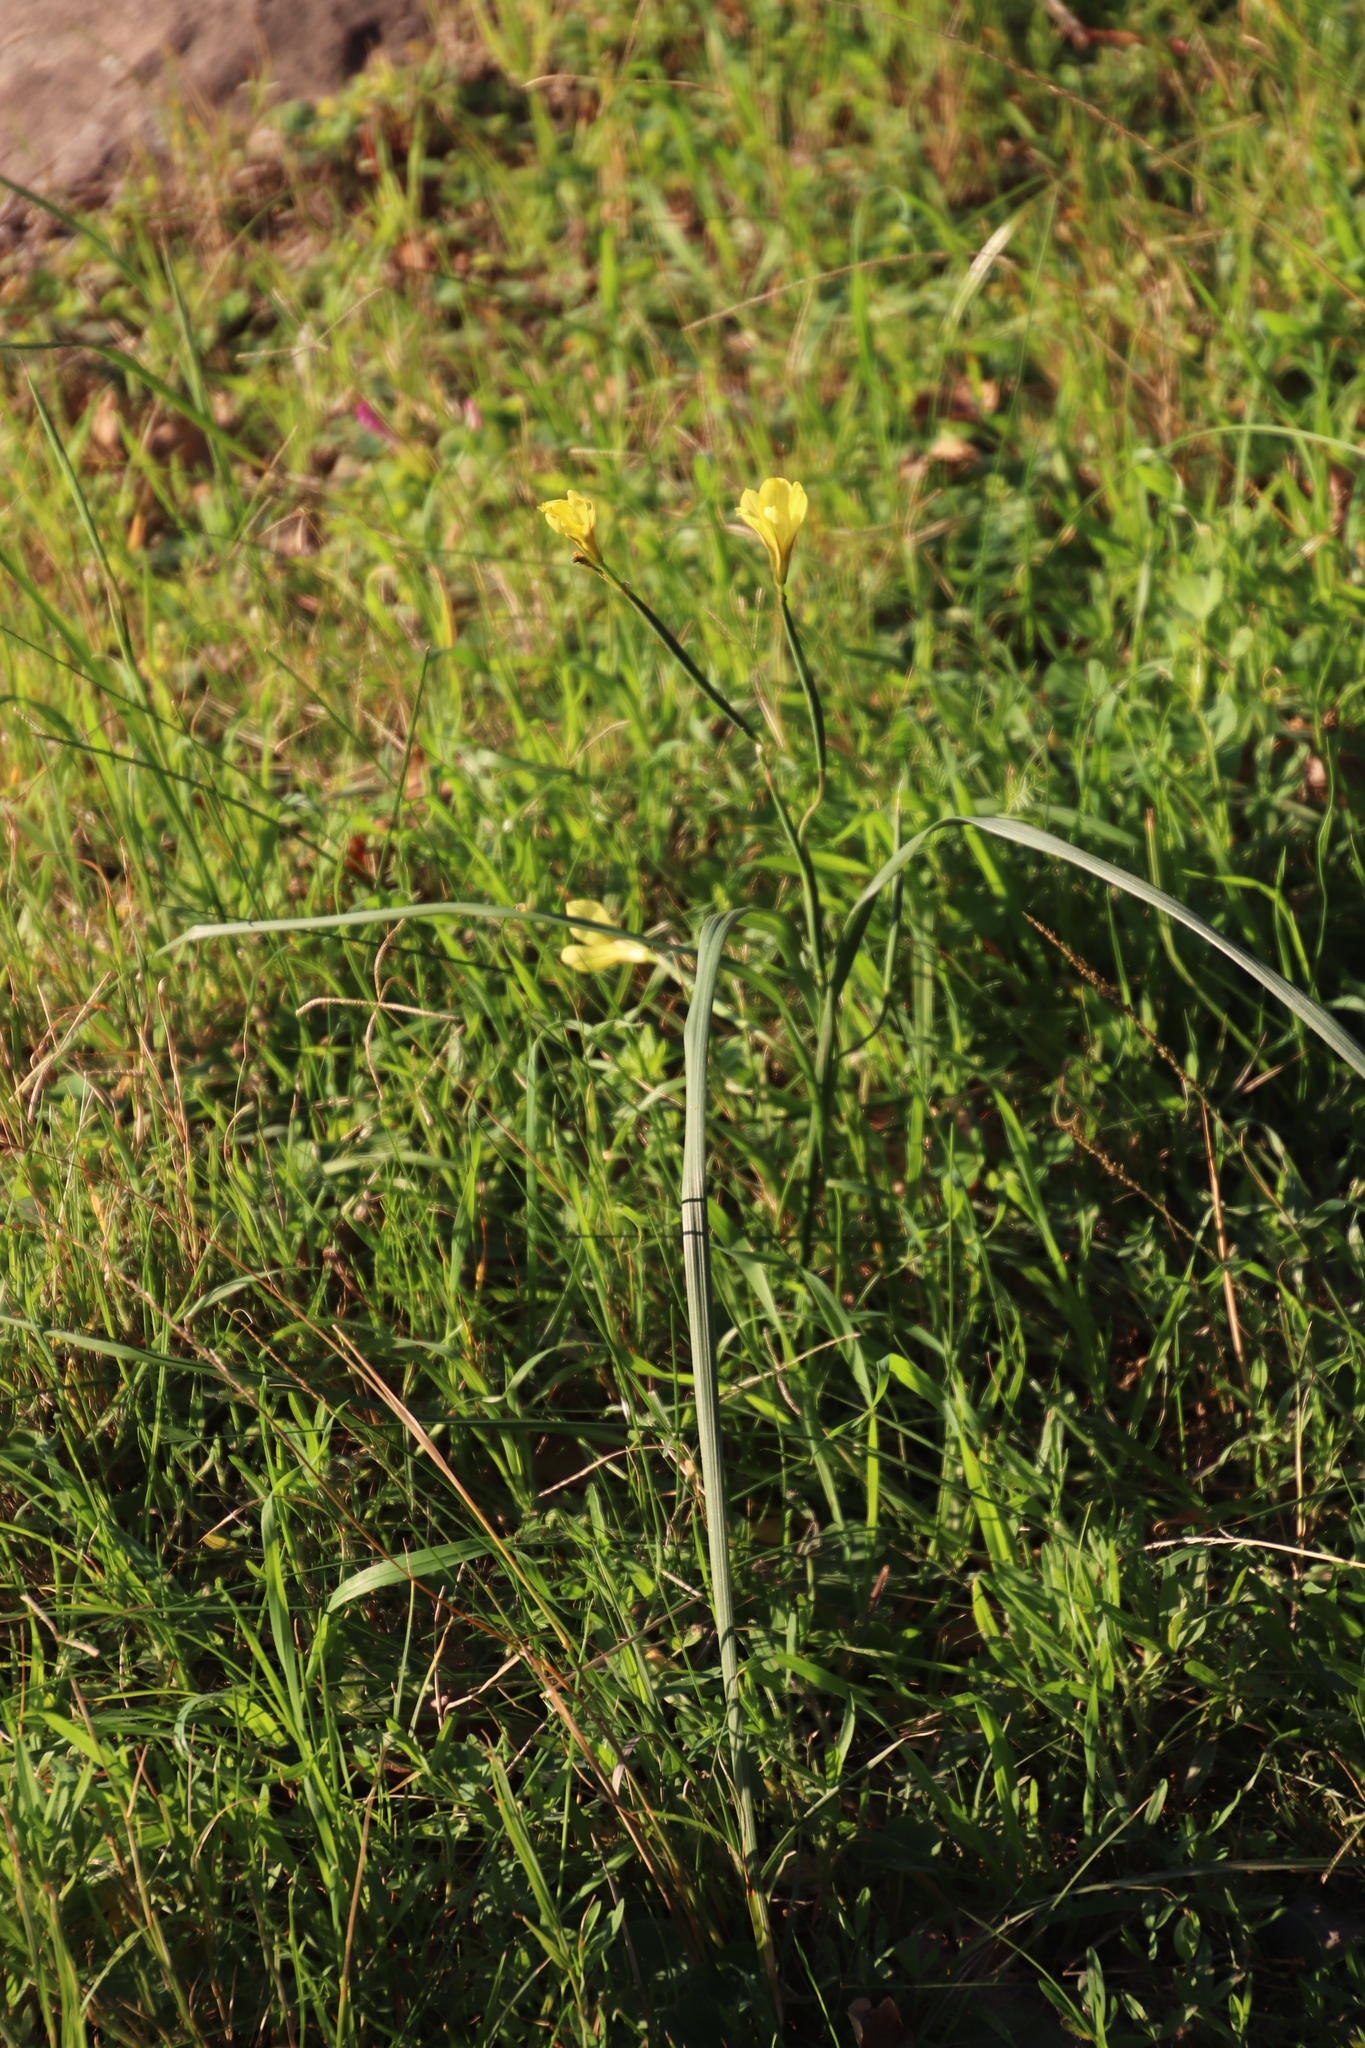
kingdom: Plantae
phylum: Tracheophyta
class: Liliopsida
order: Asparagales
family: Iridaceae
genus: Moraea
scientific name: Moraea collina
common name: Cape-tulip
